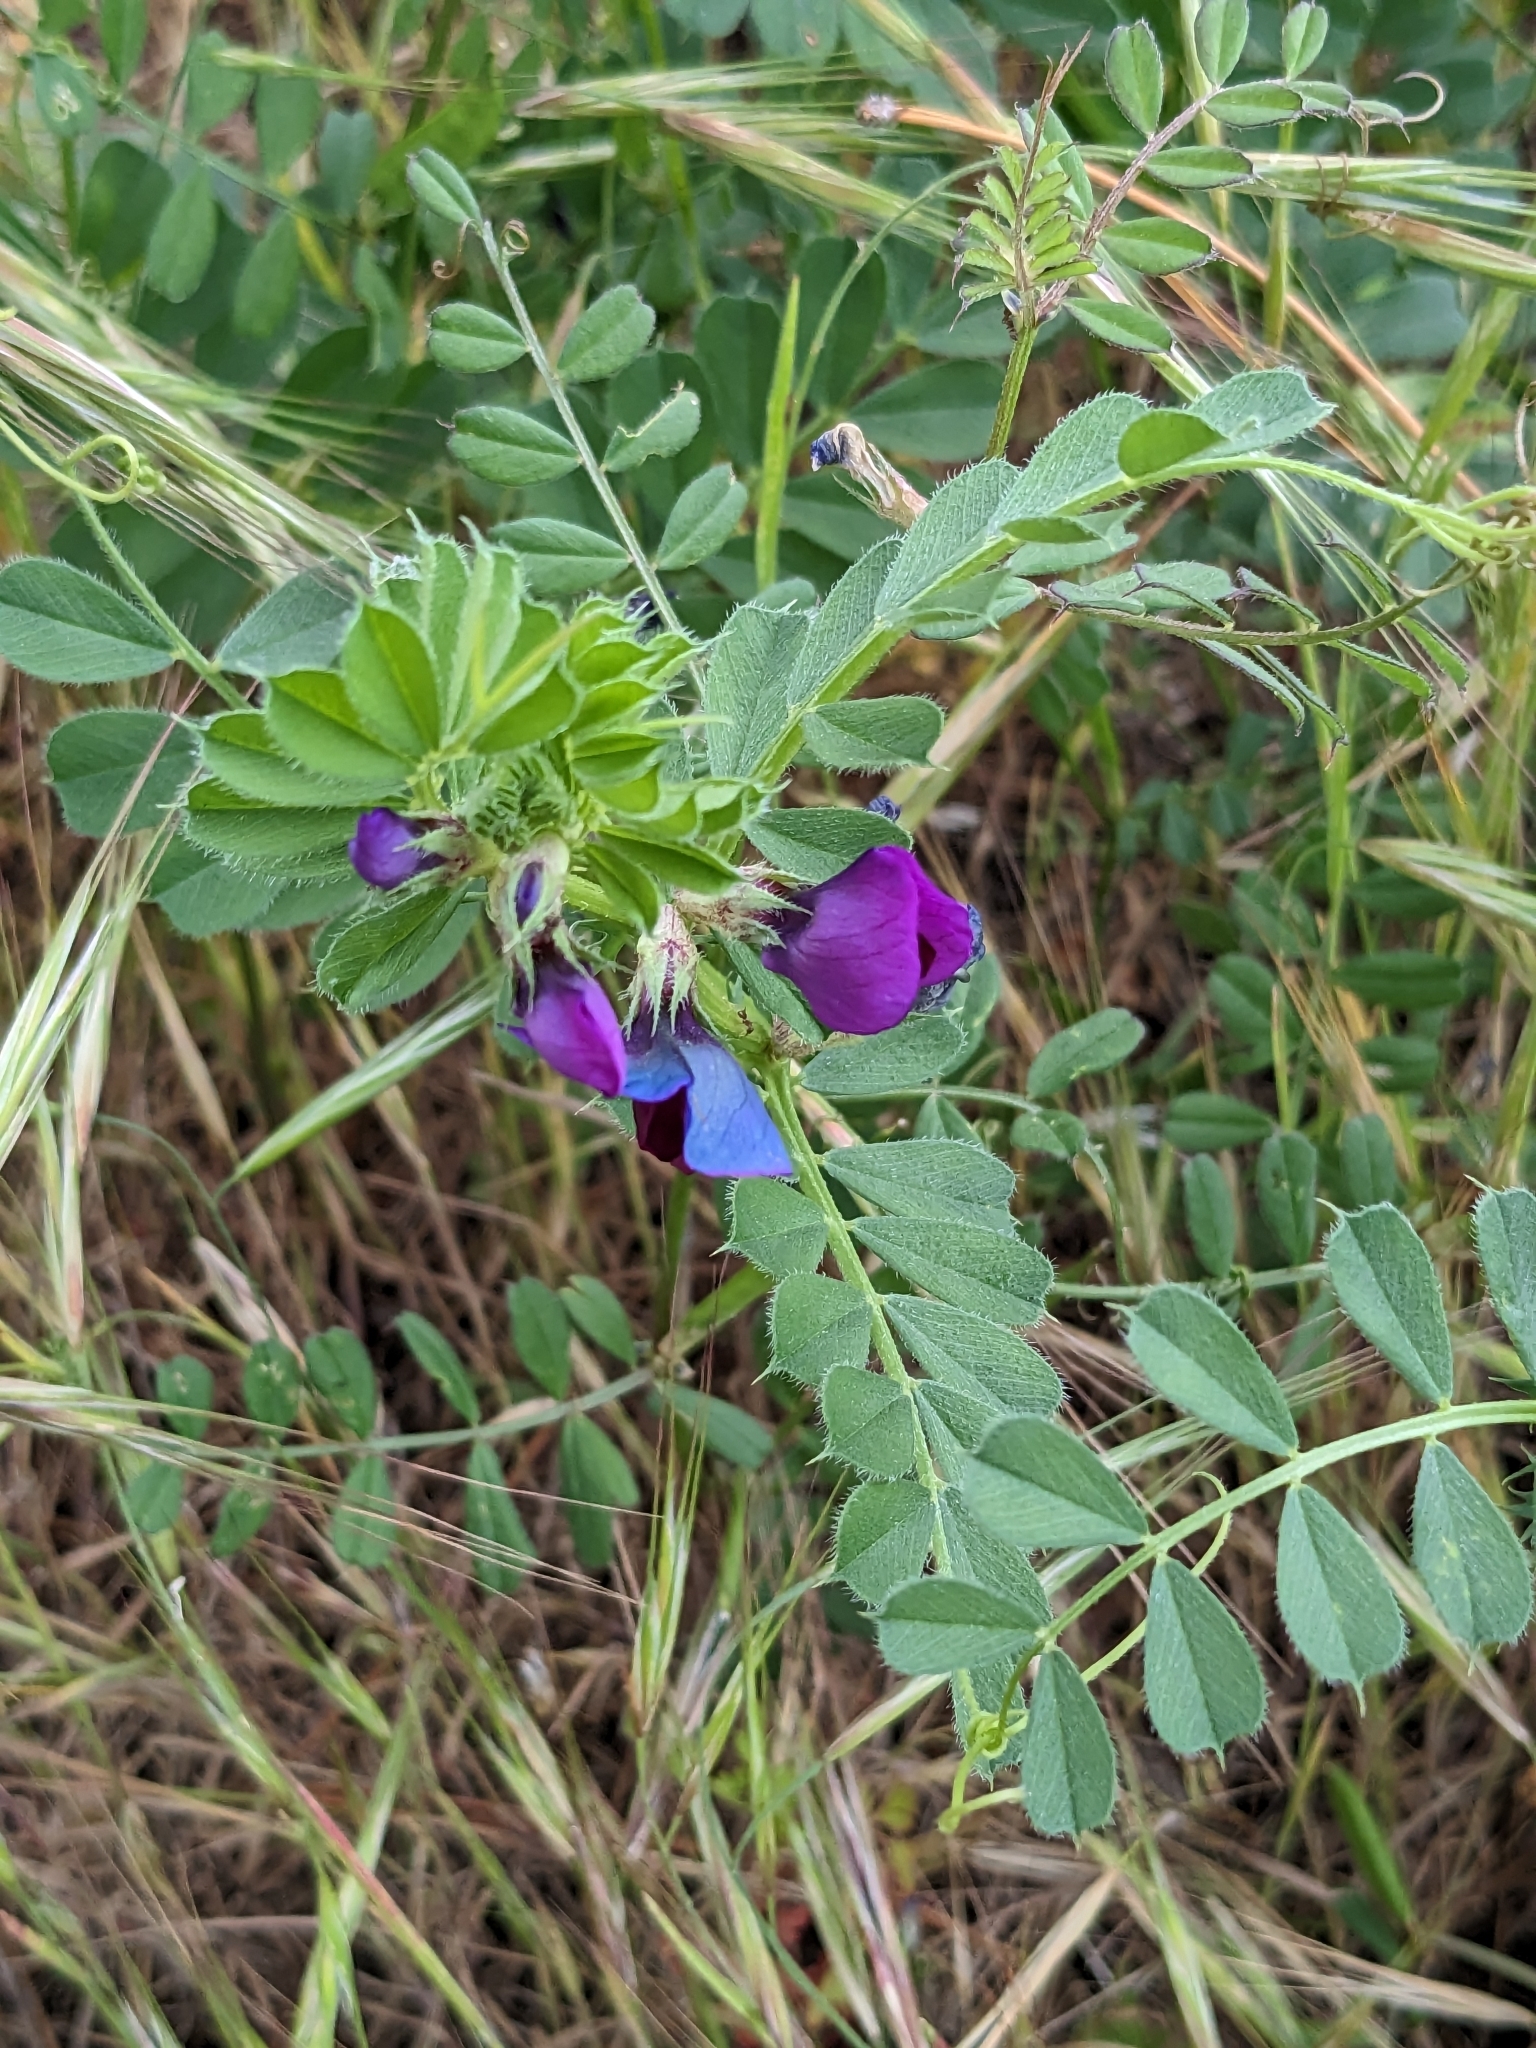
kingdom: Plantae
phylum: Tracheophyta
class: Magnoliopsida
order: Fabales
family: Fabaceae
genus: Vicia
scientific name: Vicia sativa
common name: Garden vetch
